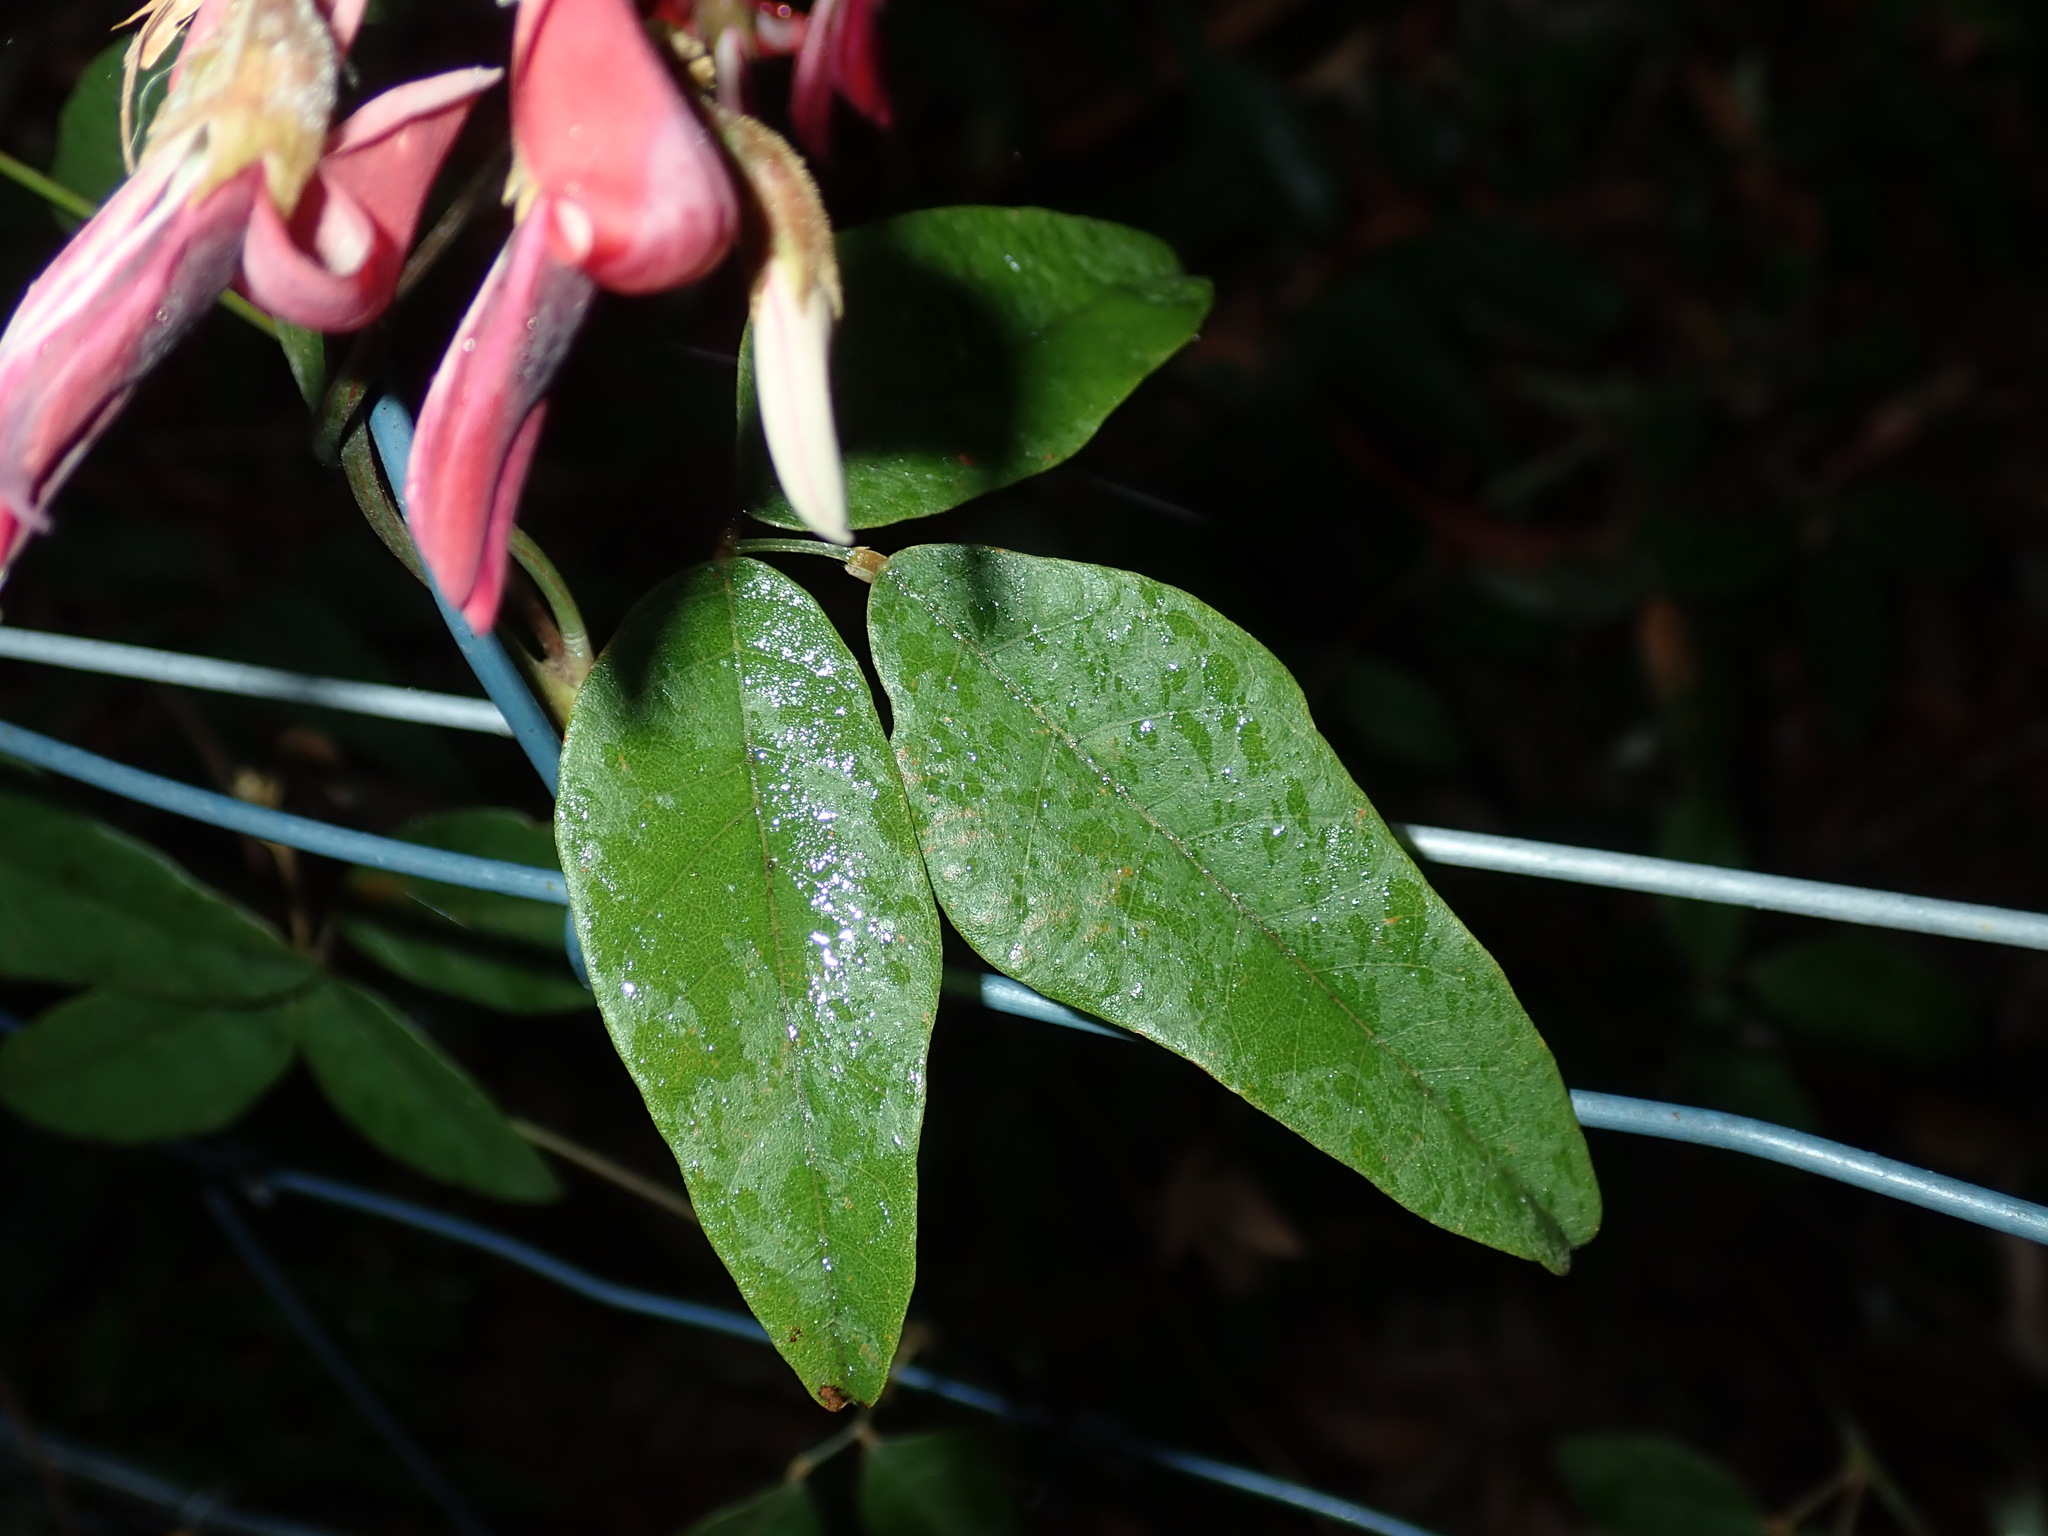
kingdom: Plantae
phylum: Tracheophyta
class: Magnoliopsida
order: Fabales
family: Fabaceae
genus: Kennedia
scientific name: Kennedia rubicunda
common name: Red kennedy-pea
